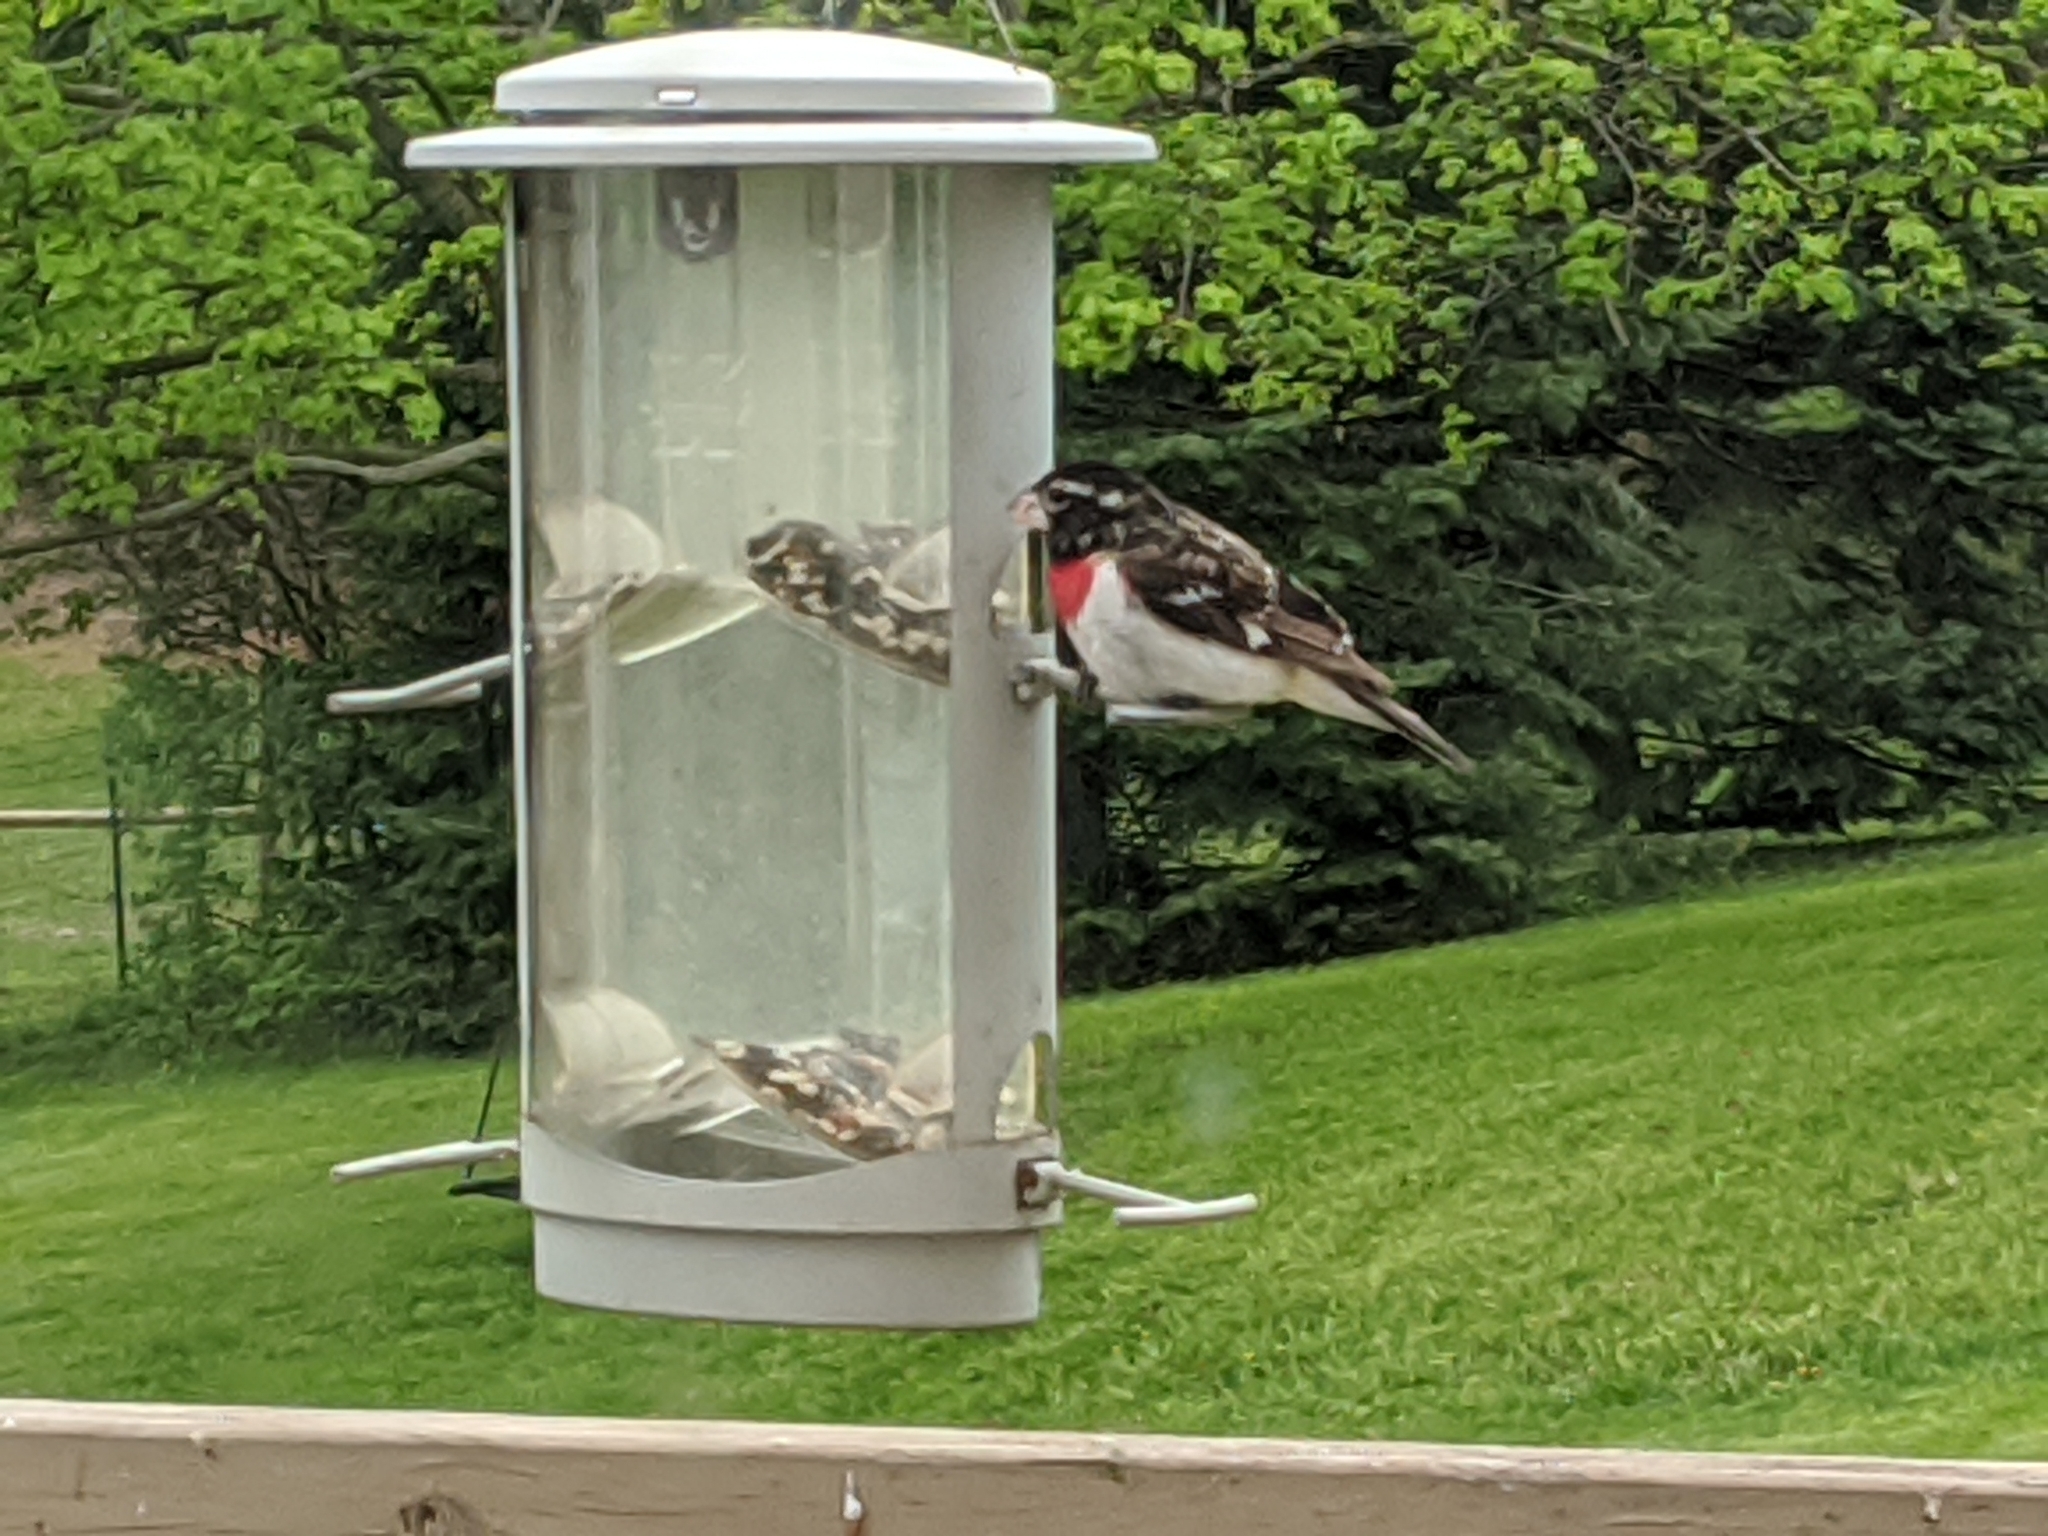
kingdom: Animalia
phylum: Chordata
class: Aves
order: Passeriformes
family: Cardinalidae
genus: Pheucticus
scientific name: Pheucticus ludovicianus
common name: Rose-breasted grosbeak
